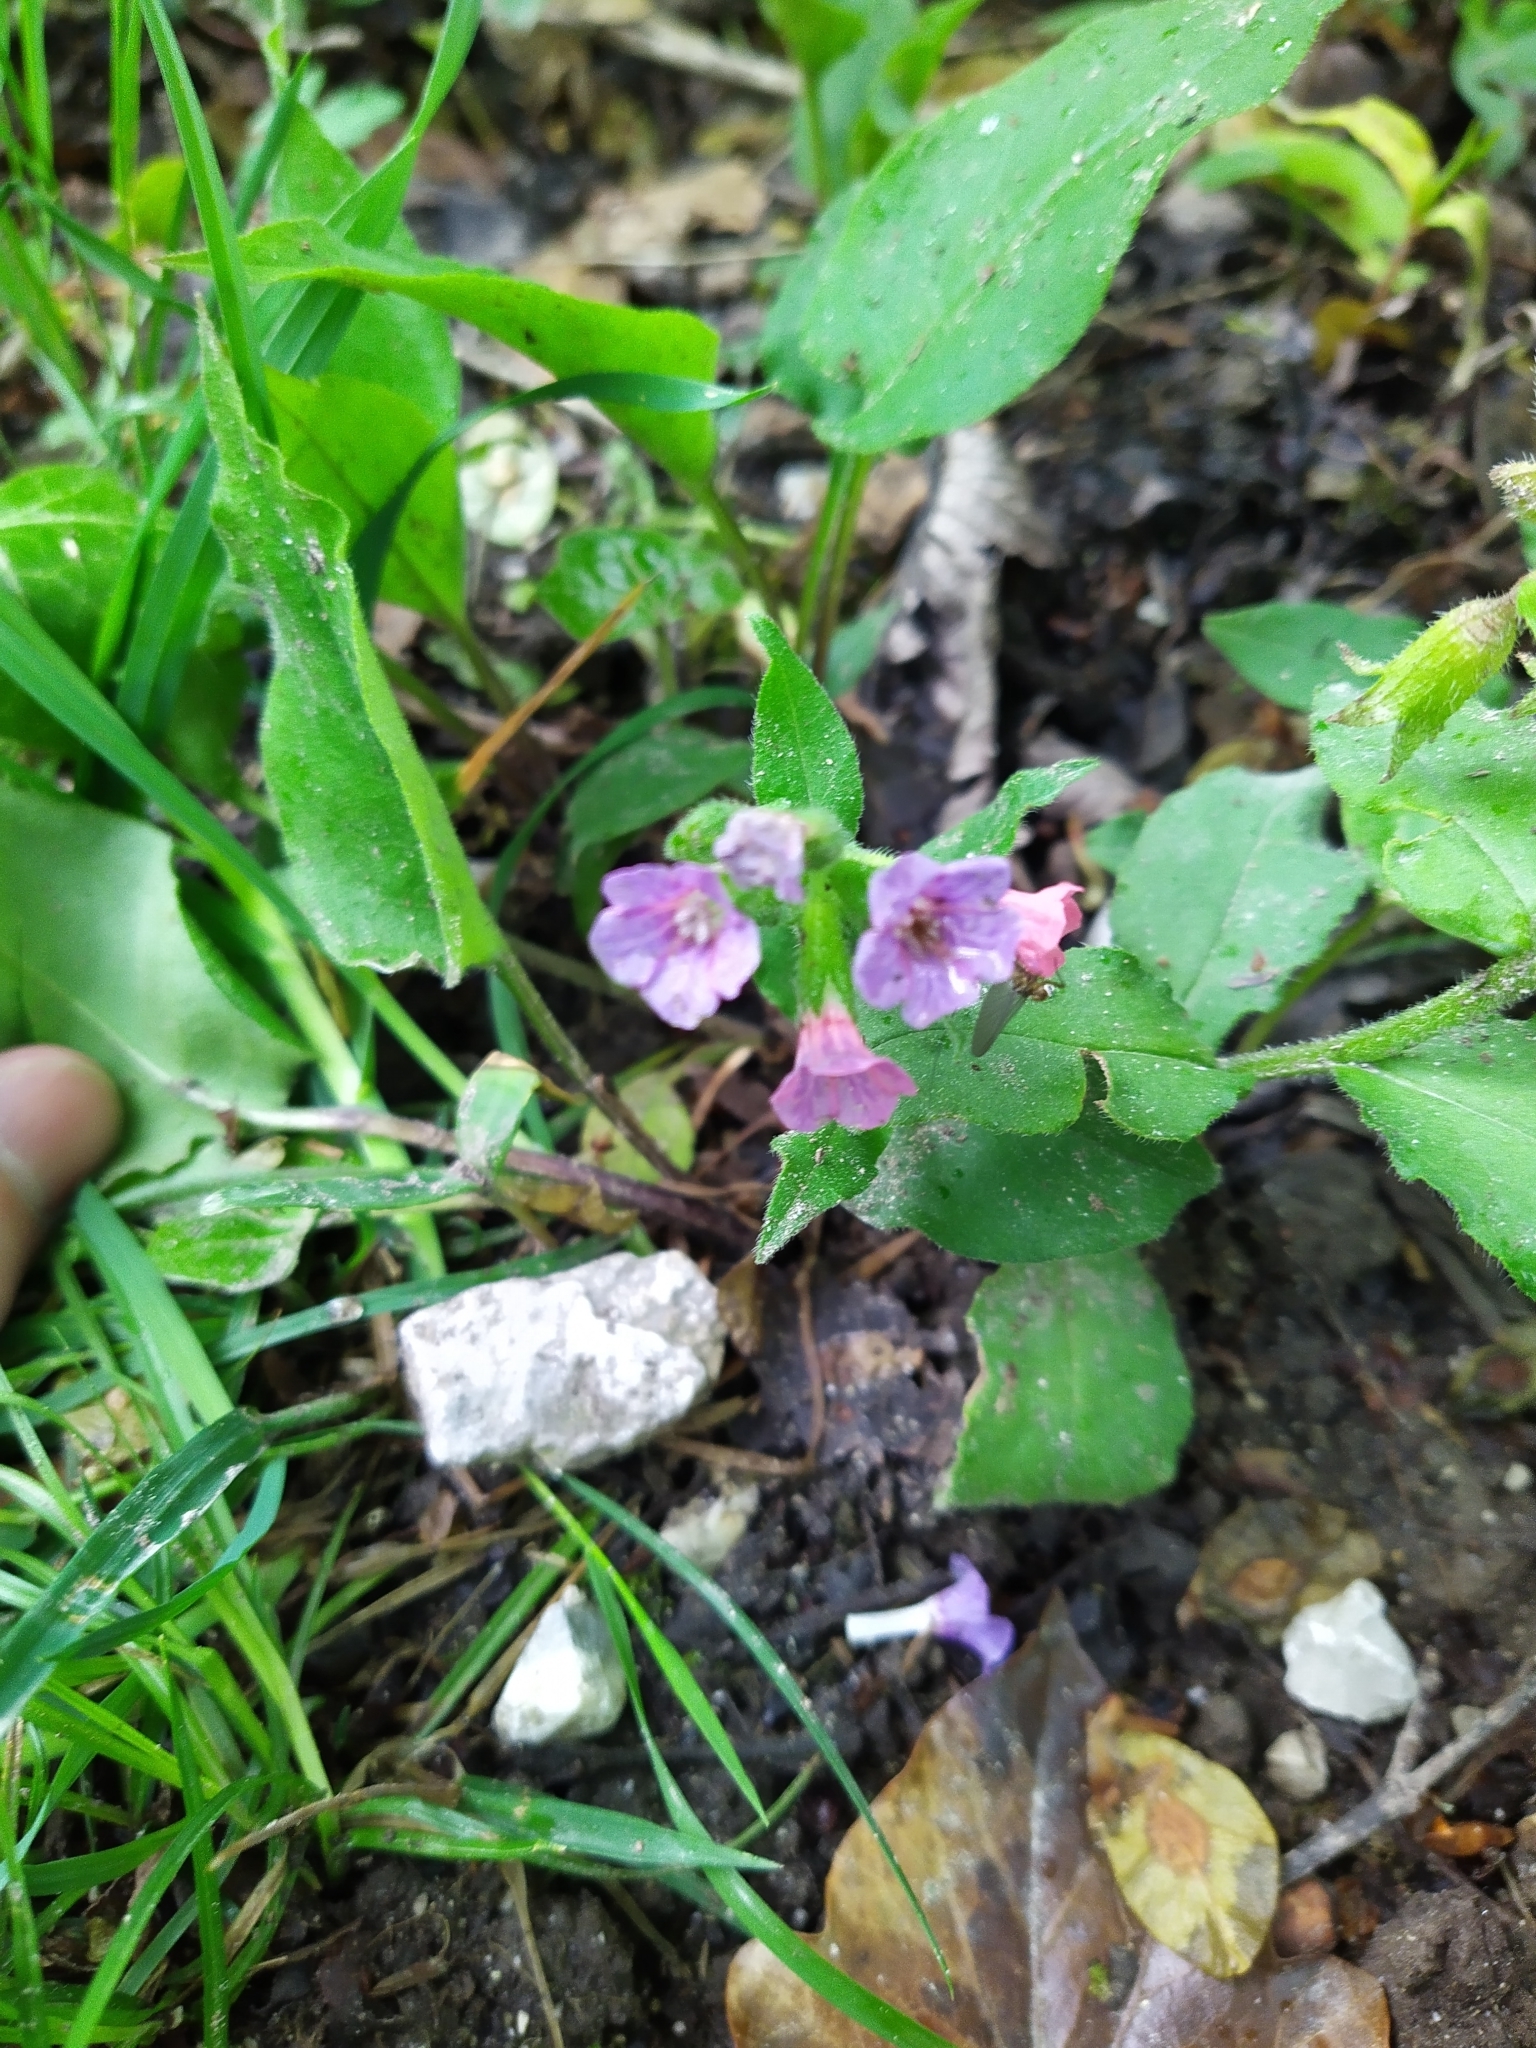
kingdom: Plantae
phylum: Tracheophyta
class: Magnoliopsida
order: Boraginales
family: Boraginaceae
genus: Pulmonaria
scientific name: Pulmonaria obscura
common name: Suffolk lungwort
